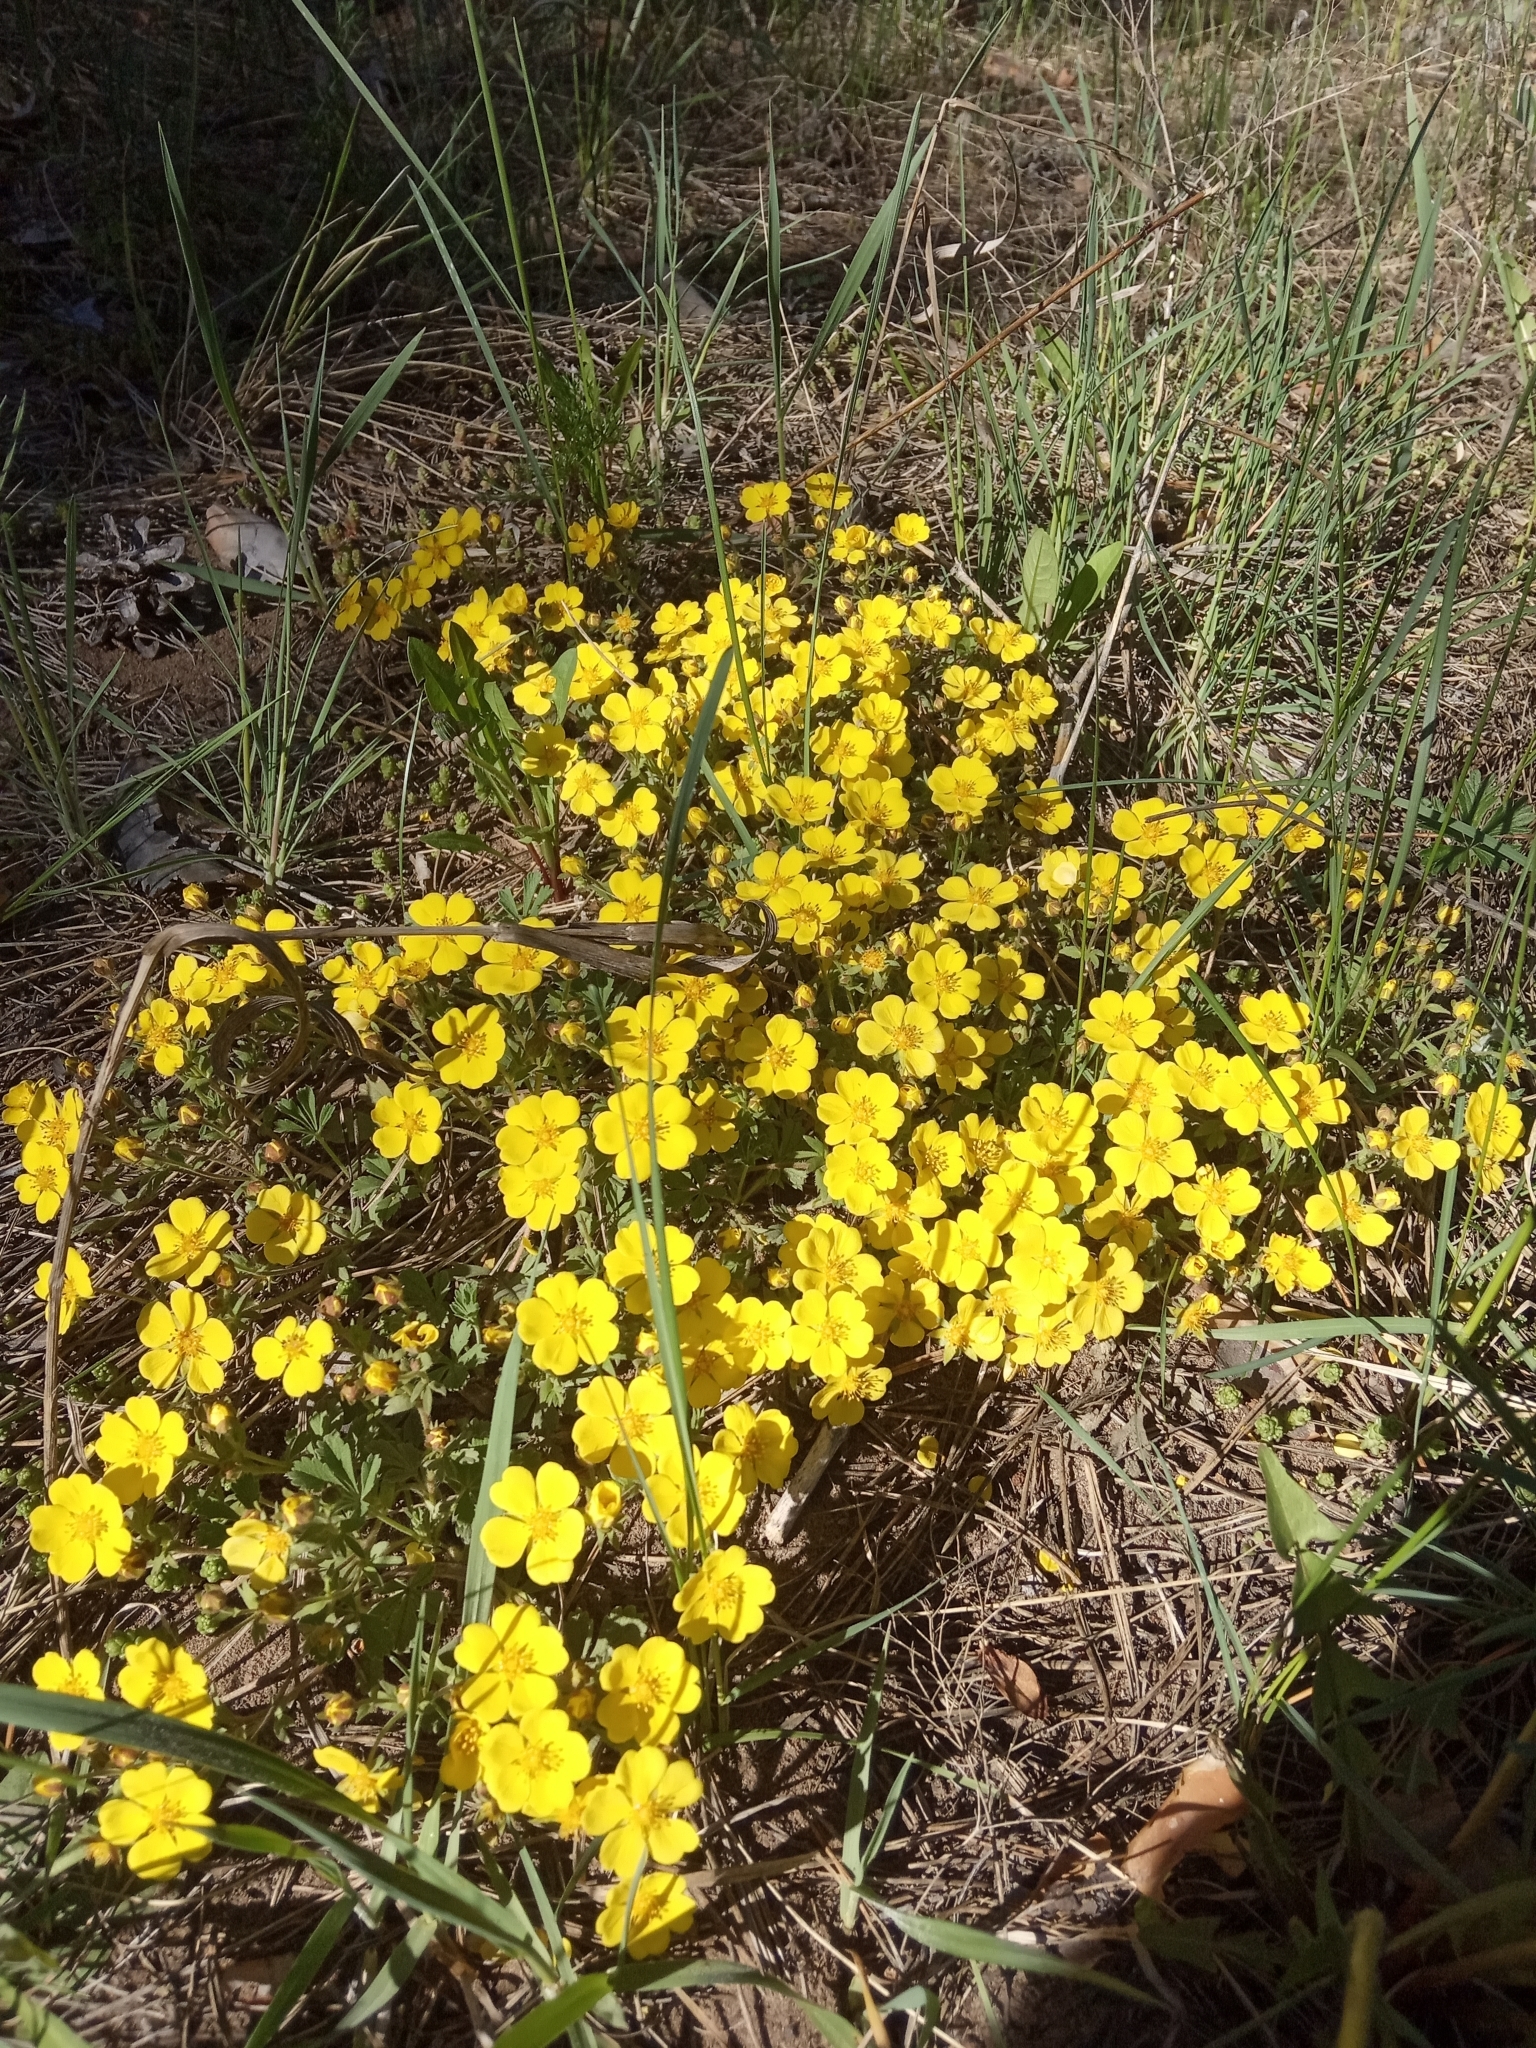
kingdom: Plantae
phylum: Tracheophyta
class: Magnoliopsida
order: Rosales
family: Rosaceae
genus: Potentilla
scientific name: Potentilla incana
